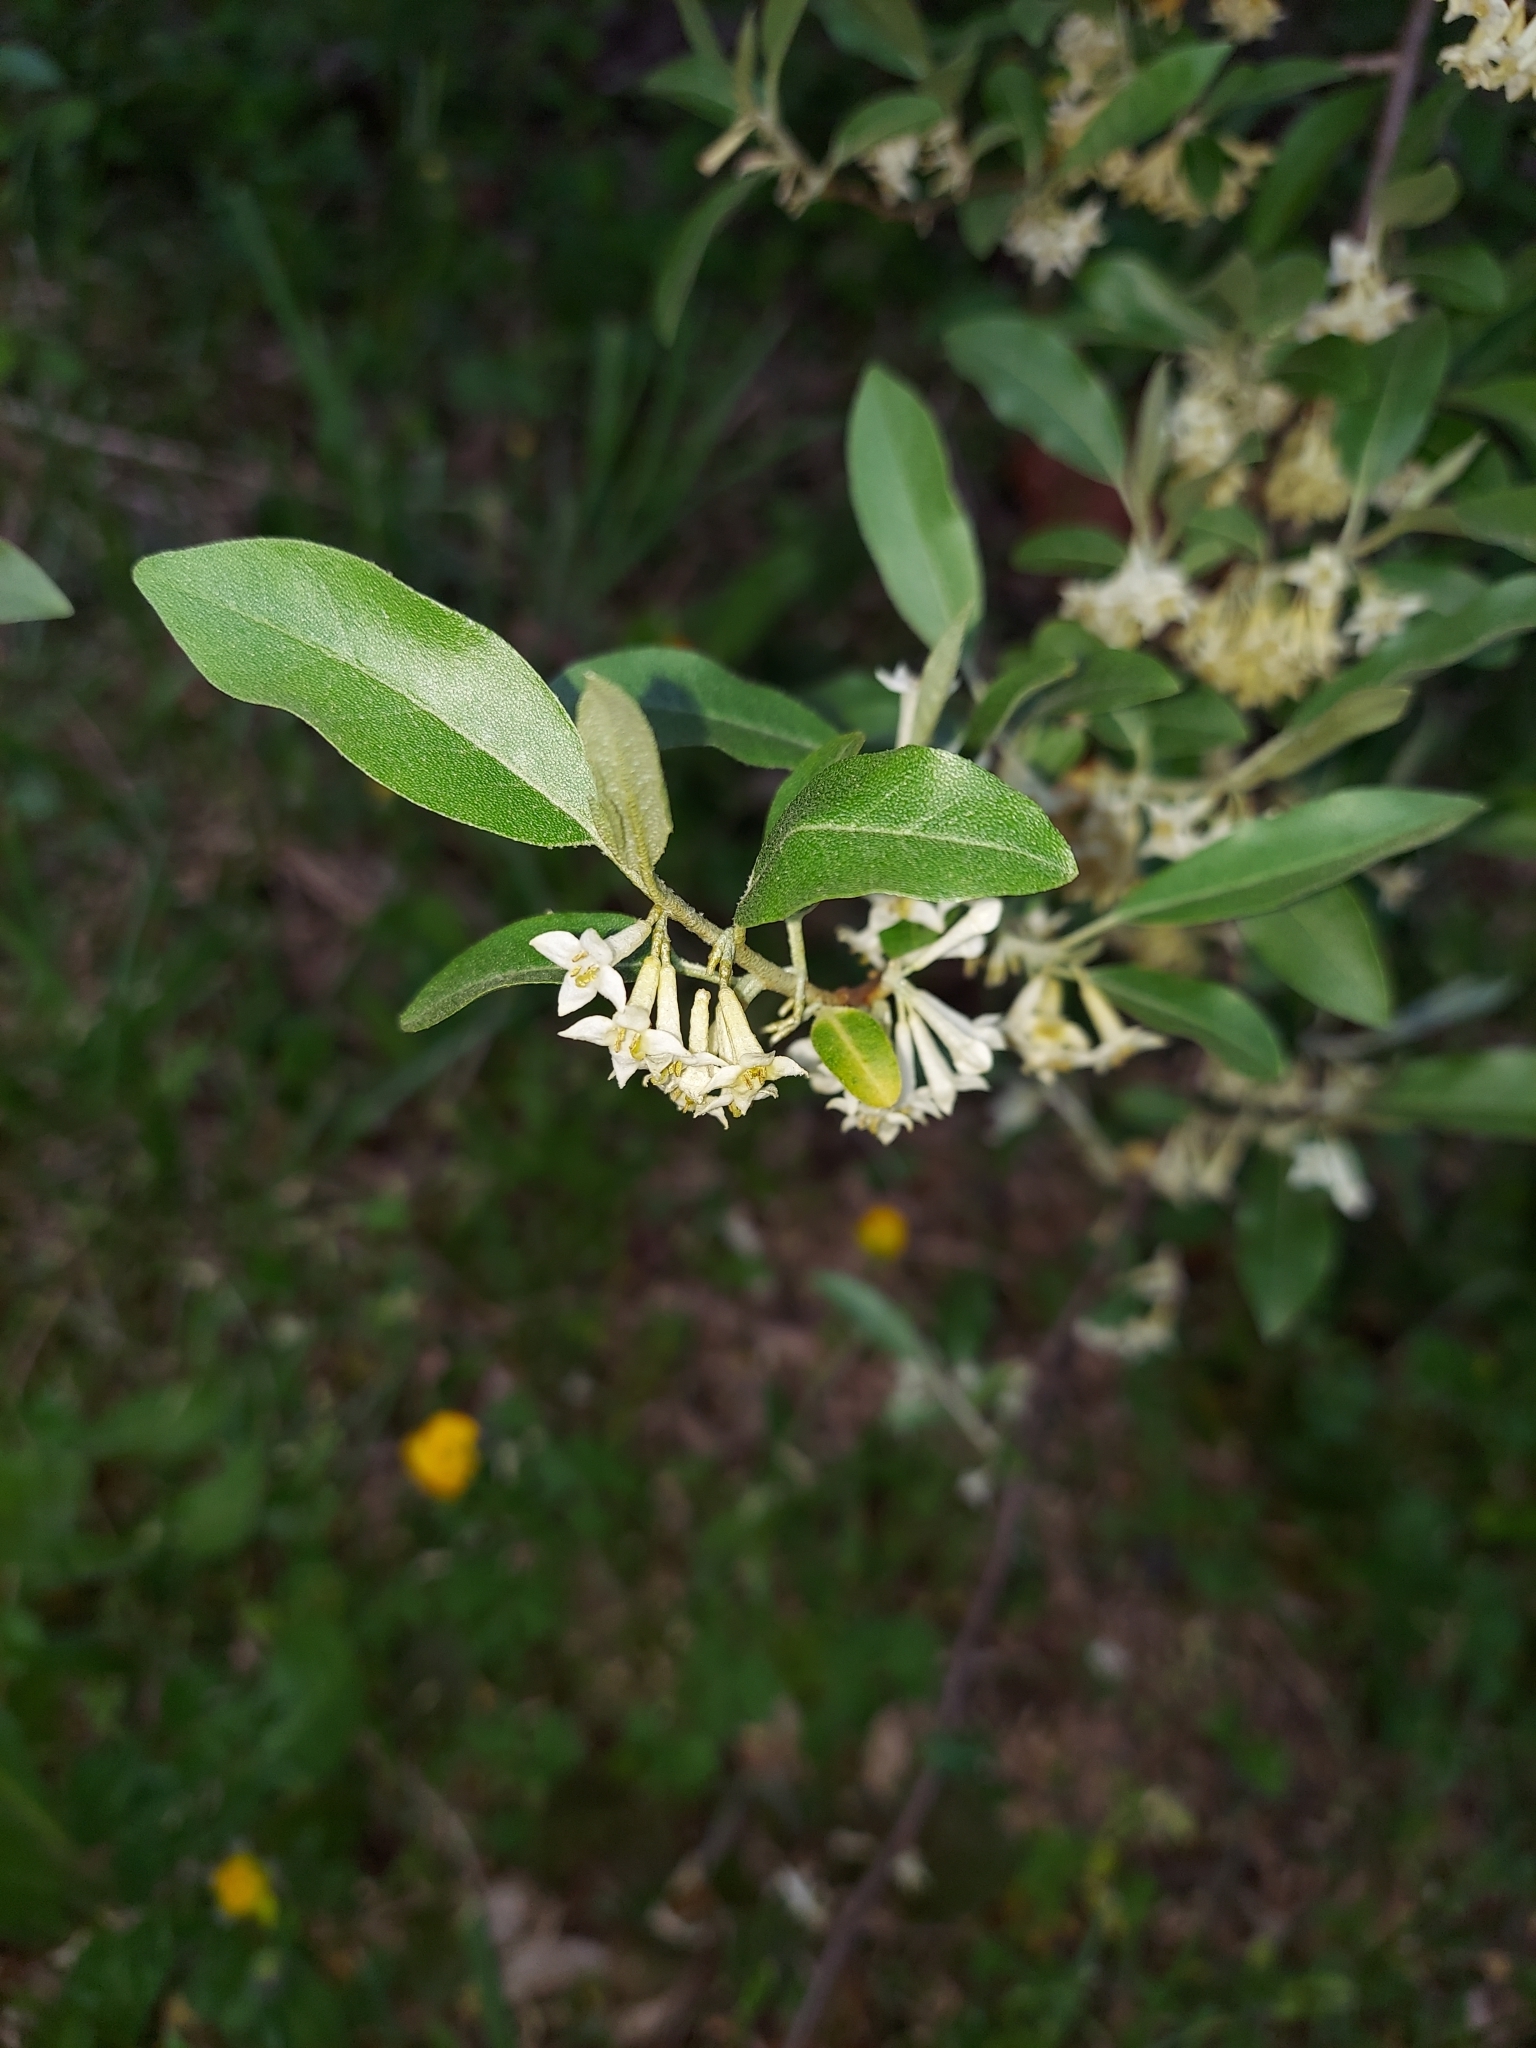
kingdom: Plantae
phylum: Tracheophyta
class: Magnoliopsida
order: Rosales
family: Elaeagnaceae
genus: Elaeagnus
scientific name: Elaeagnus umbellata
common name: Autumn olive
